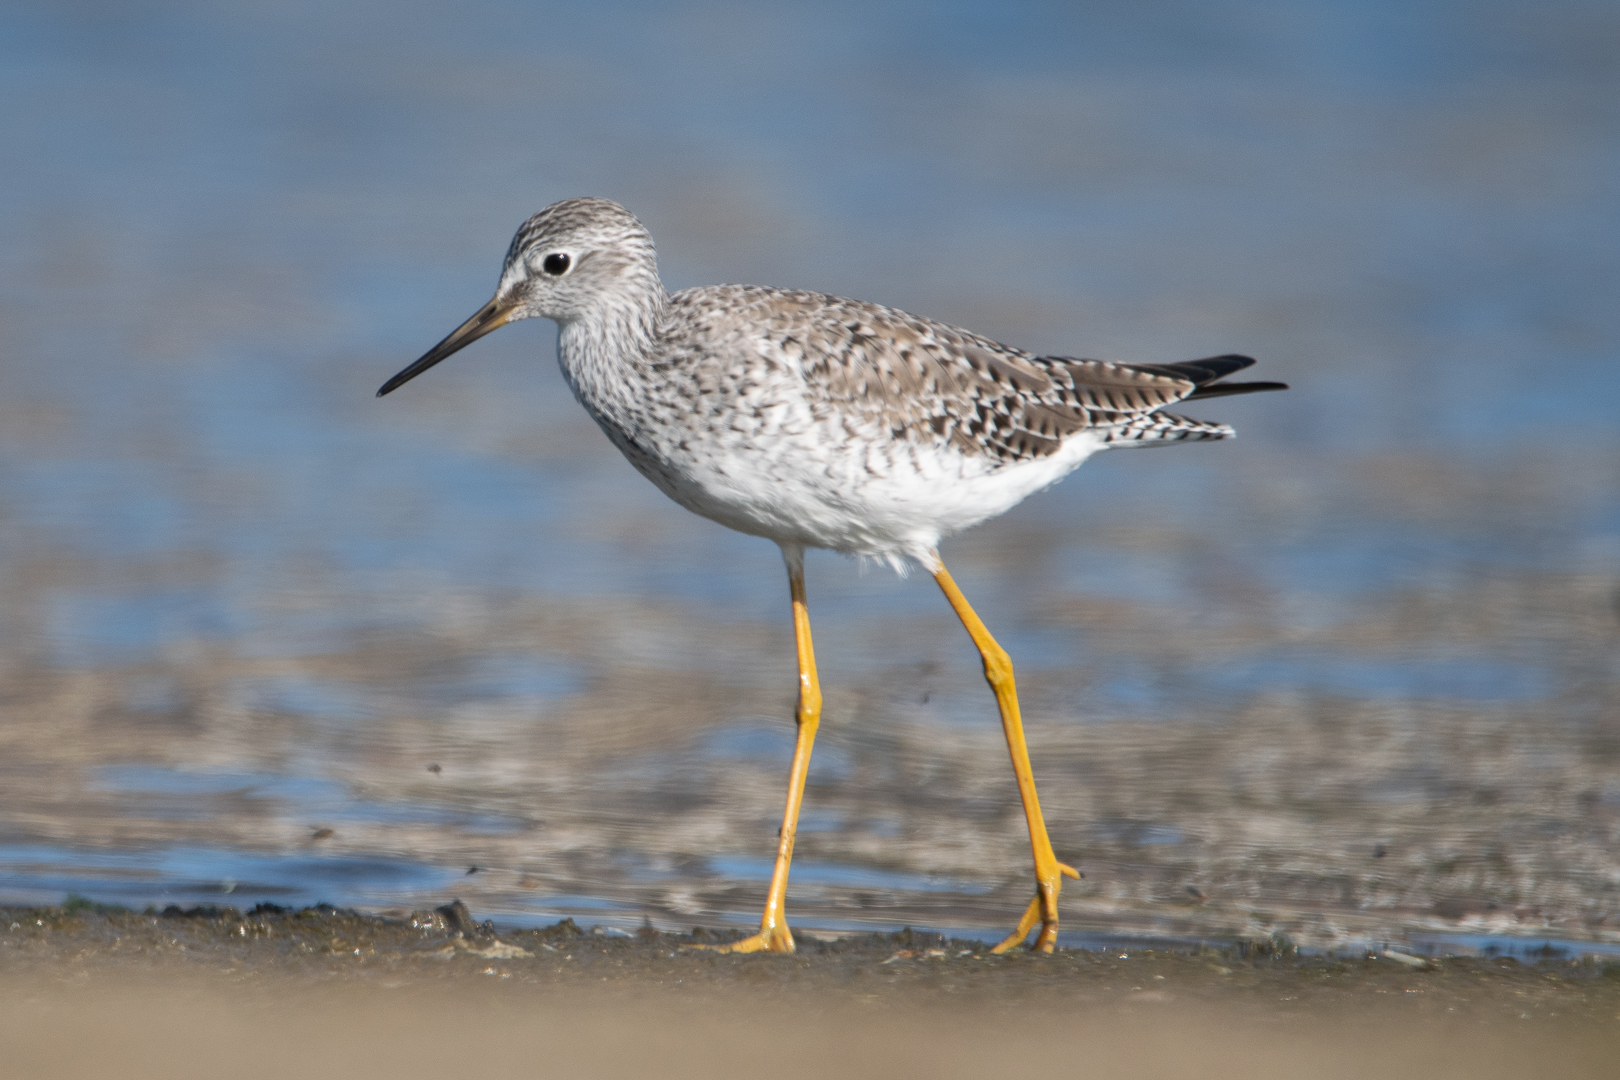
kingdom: Animalia
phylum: Chordata
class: Aves
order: Charadriiformes
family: Scolopacidae
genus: Tringa
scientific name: Tringa flavipes
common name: Lesser yellowlegs
